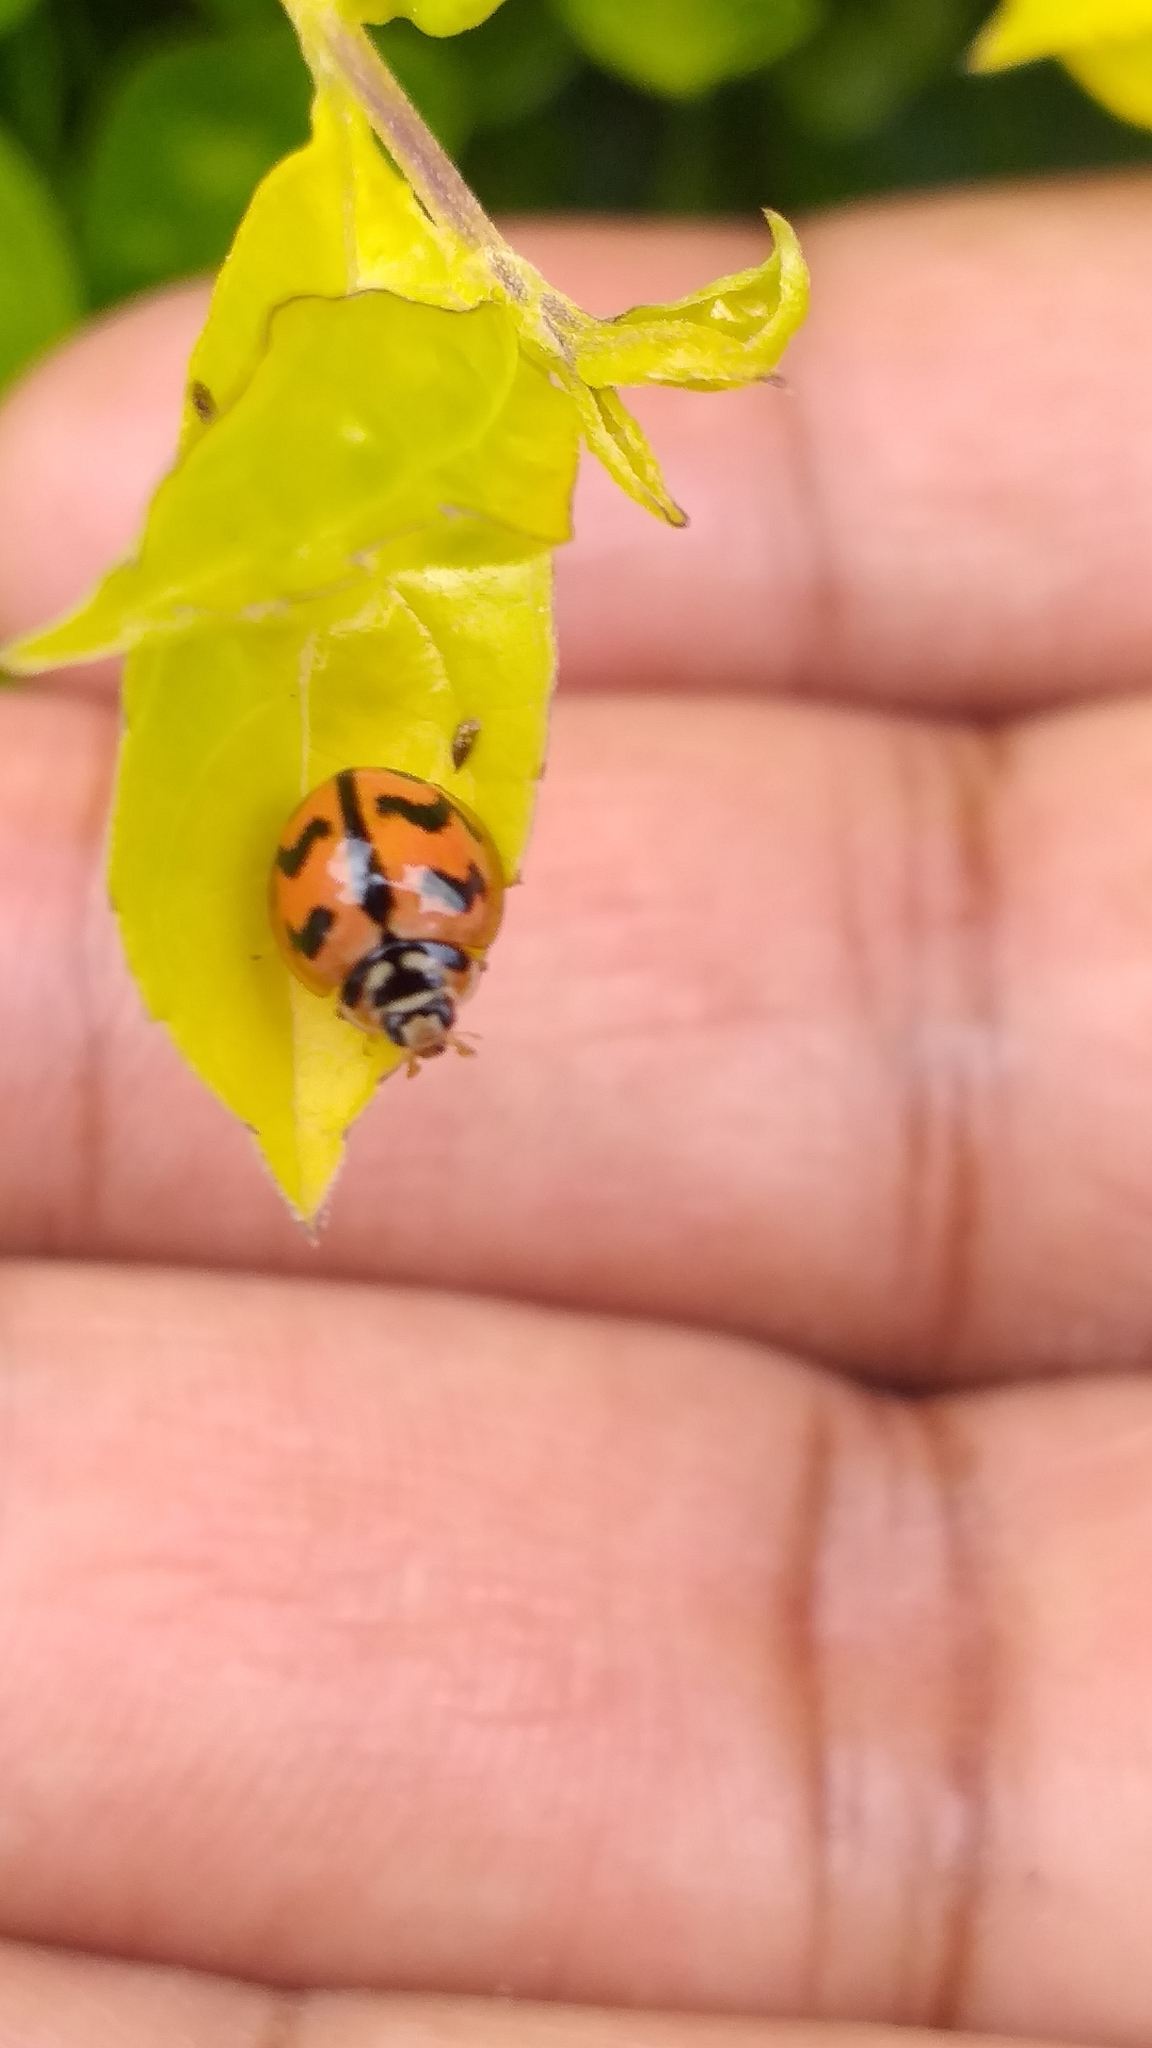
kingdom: Animalia
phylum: Arthropoda
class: Insecta
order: Coleoptera
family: Coccinellidae
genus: Cheilomenes
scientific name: Cheilomenes sexmaculata
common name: Ladybird beetle
